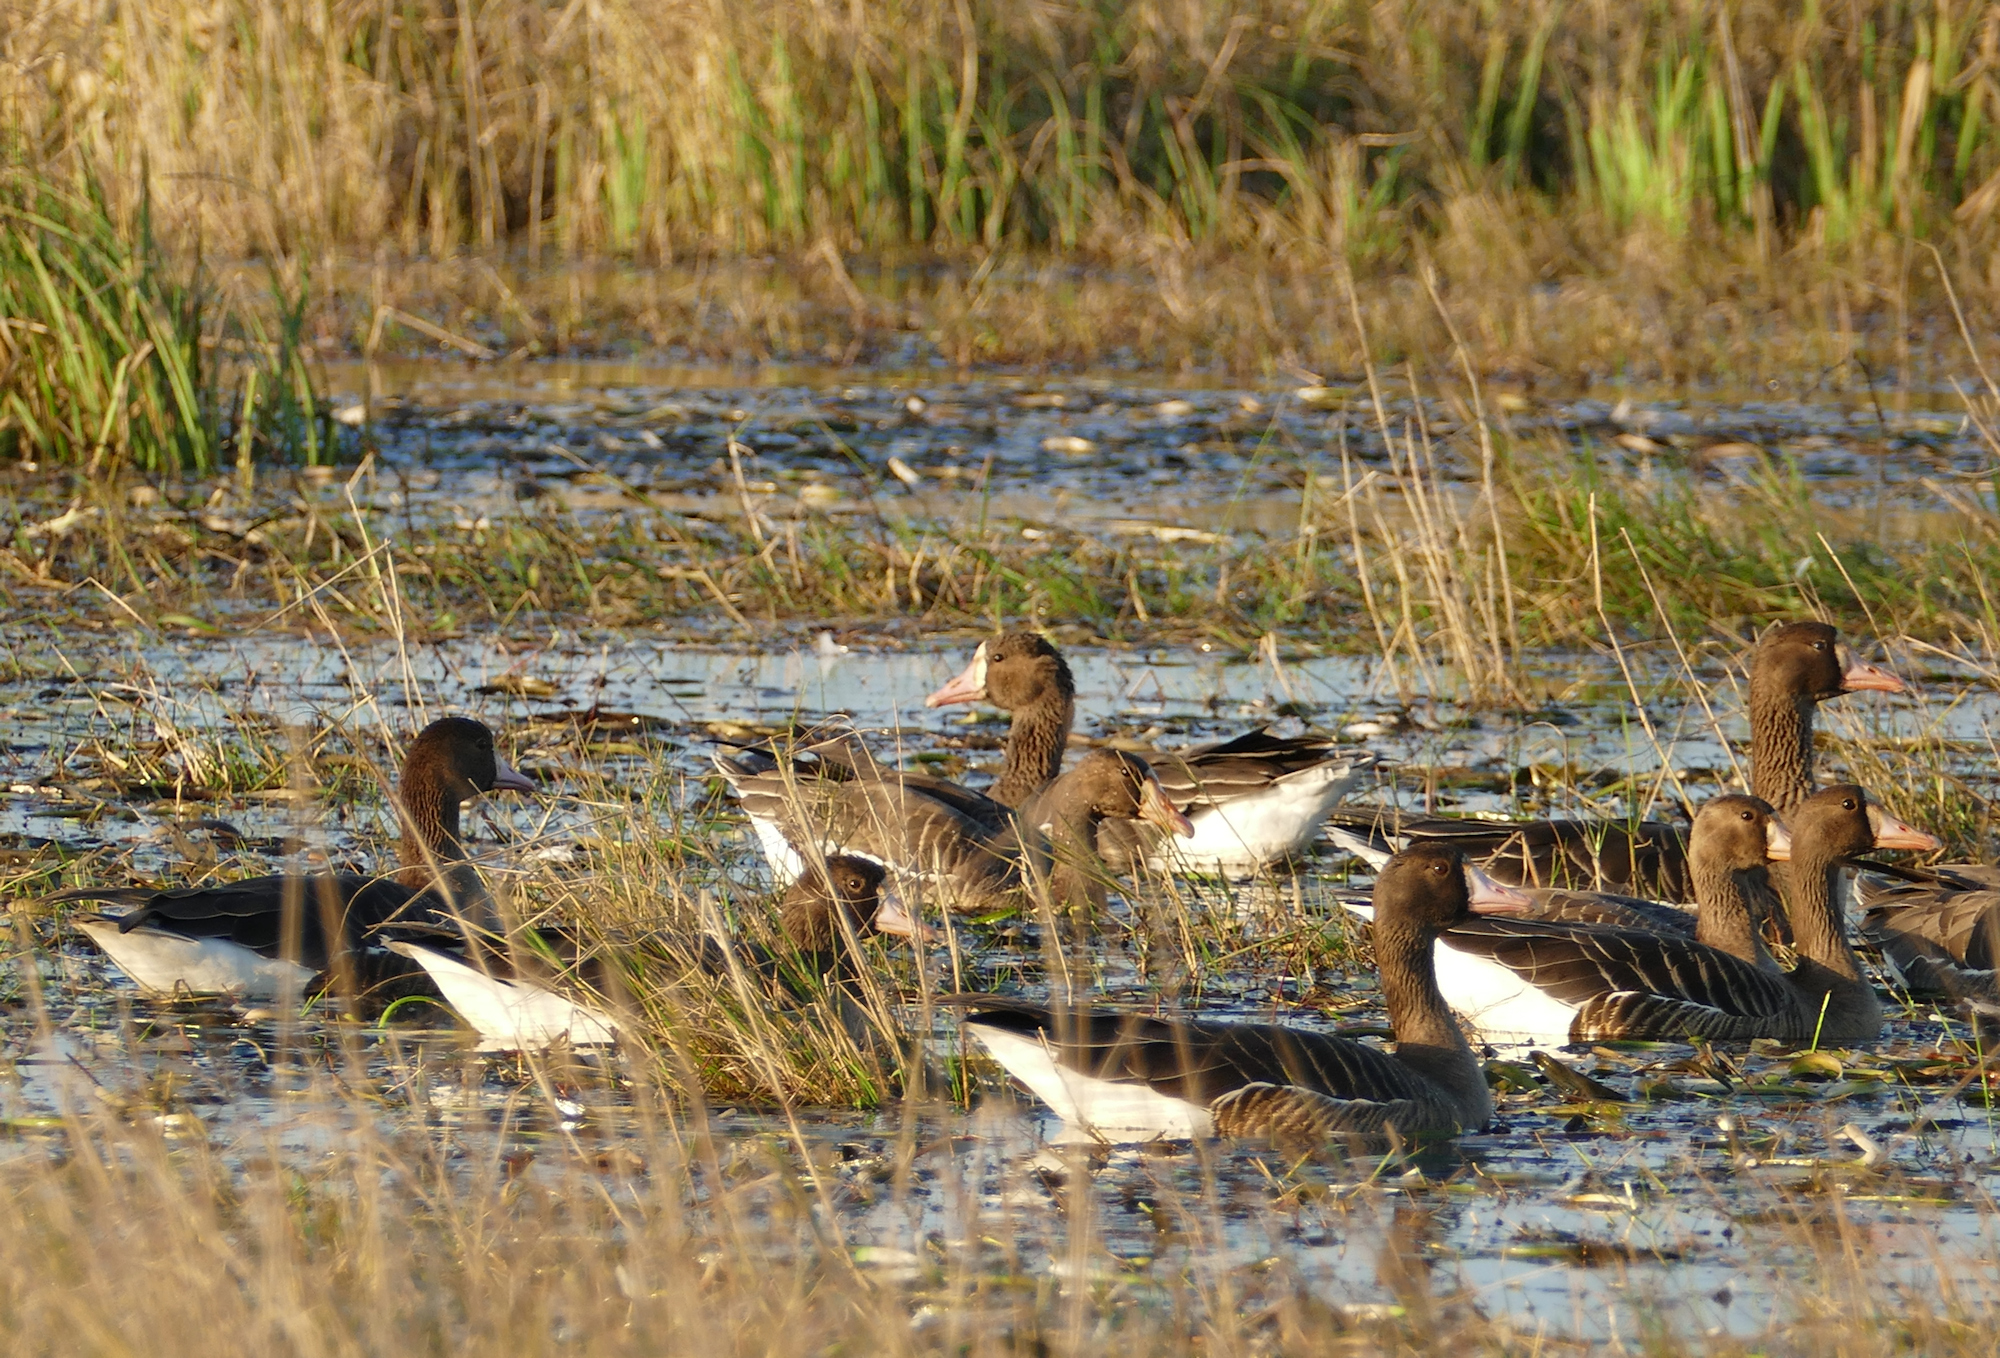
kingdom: Animalia
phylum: Chordata
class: Aves
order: Anseriformes
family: Anatidae
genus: Anser
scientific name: Anser albifrons
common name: Greater white-fronted goose
